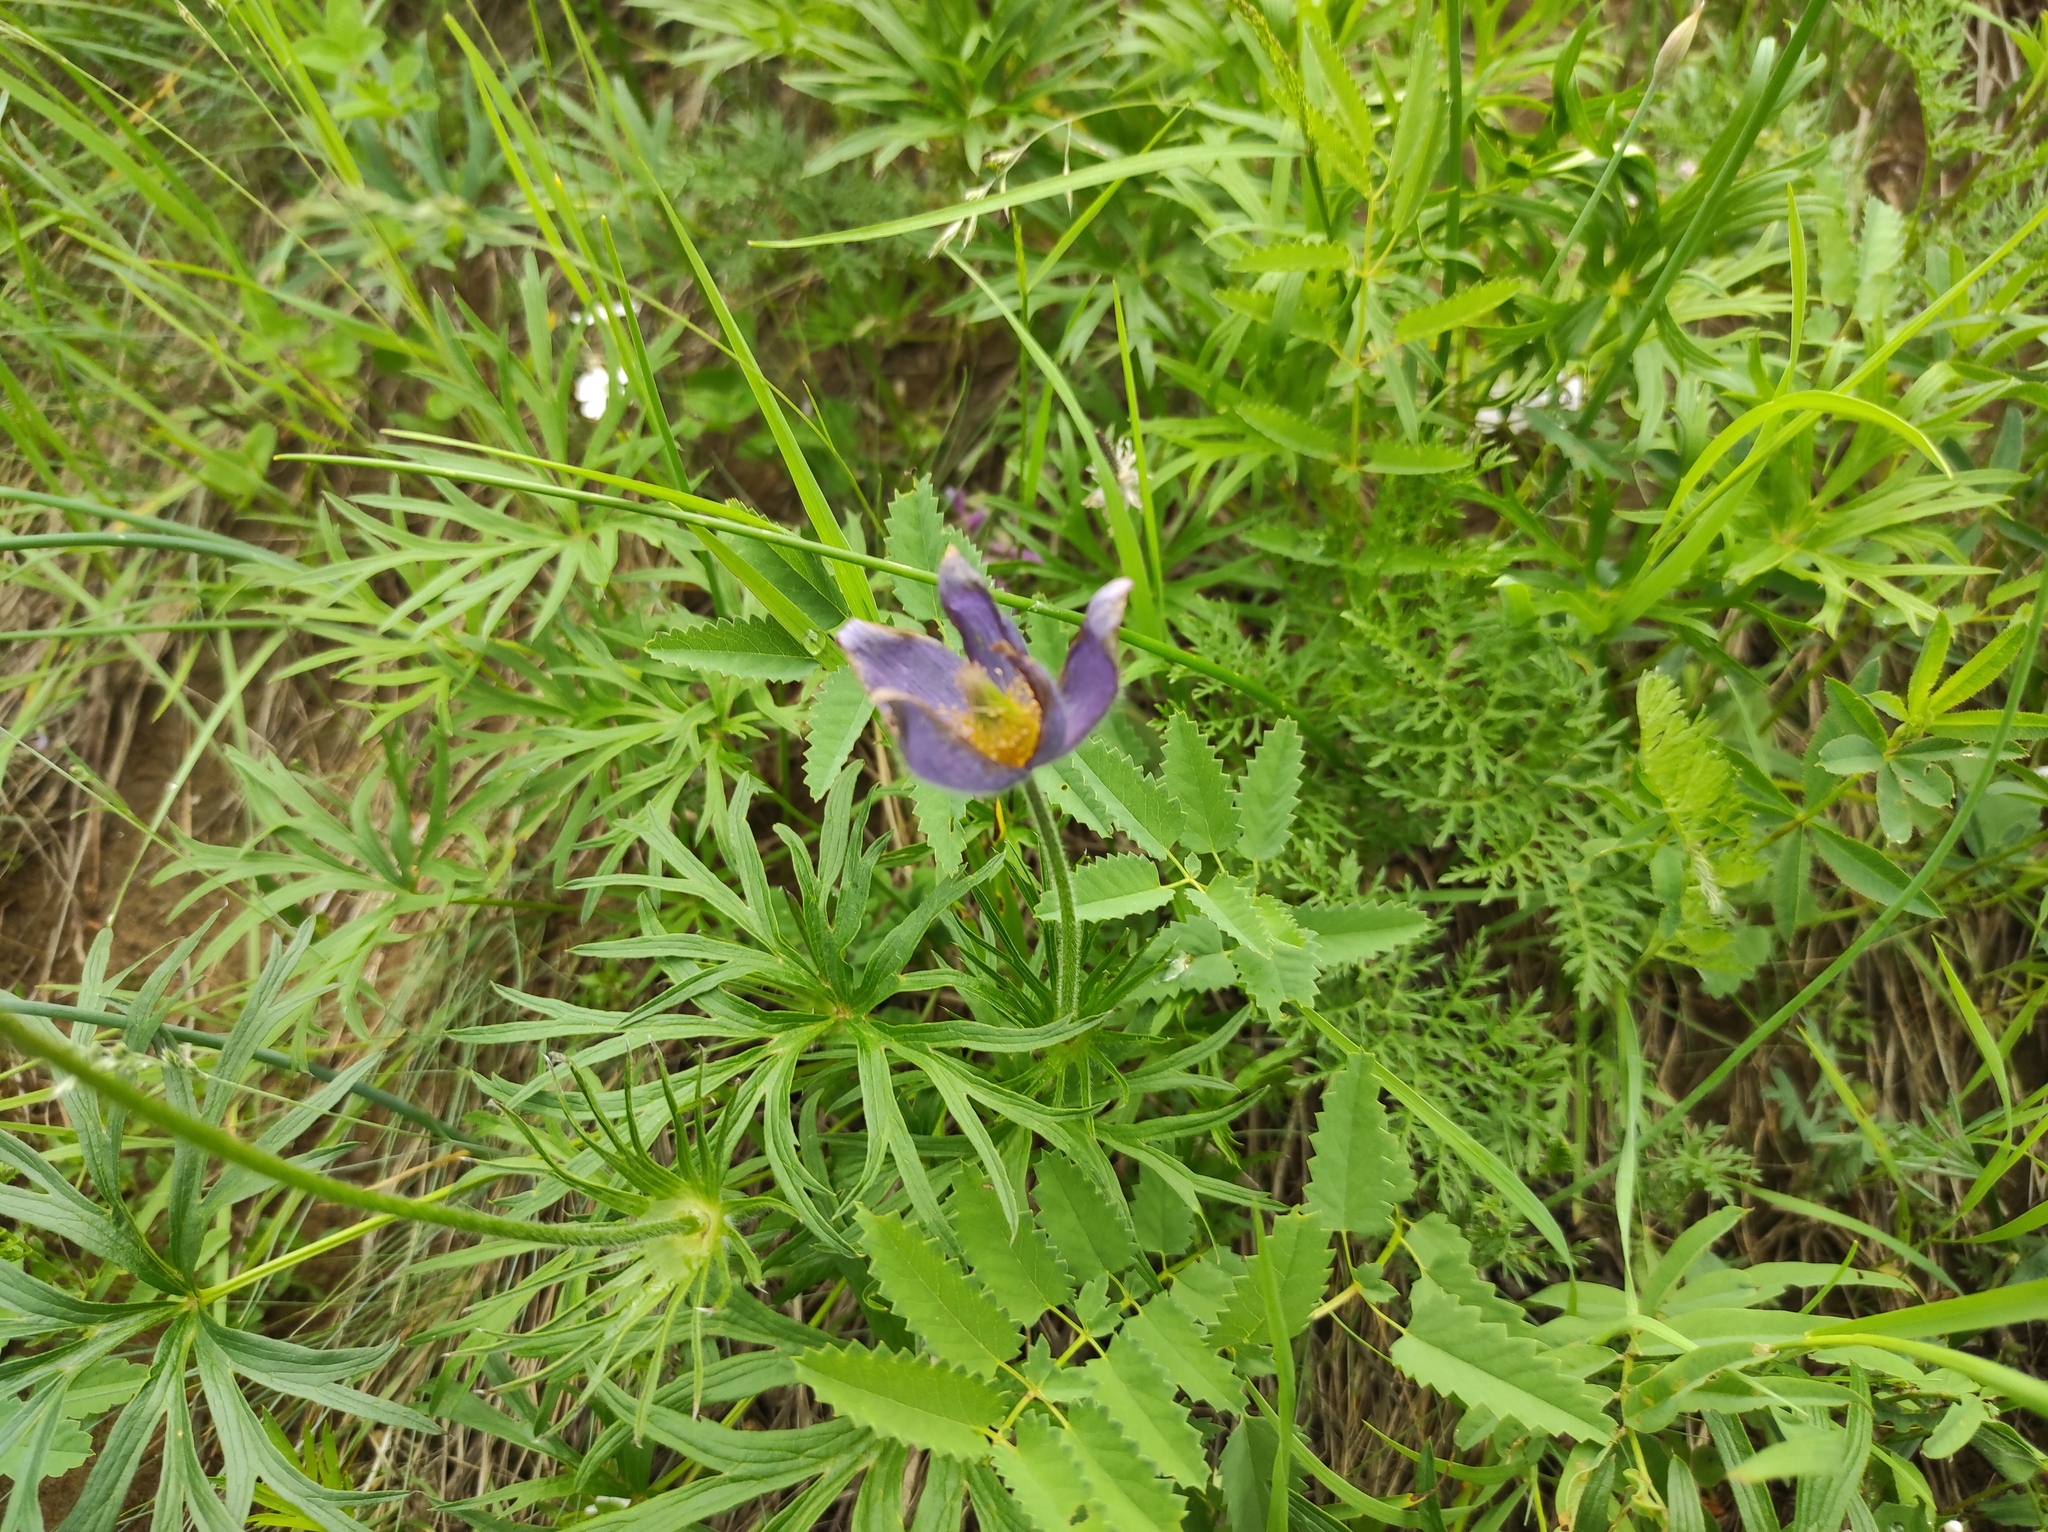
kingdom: Plantae
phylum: Tracheophyta
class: Magnoliopsida
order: Ranunculales
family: Ranunculaceae
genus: Pulsatilla
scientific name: Pulsatilla patens
